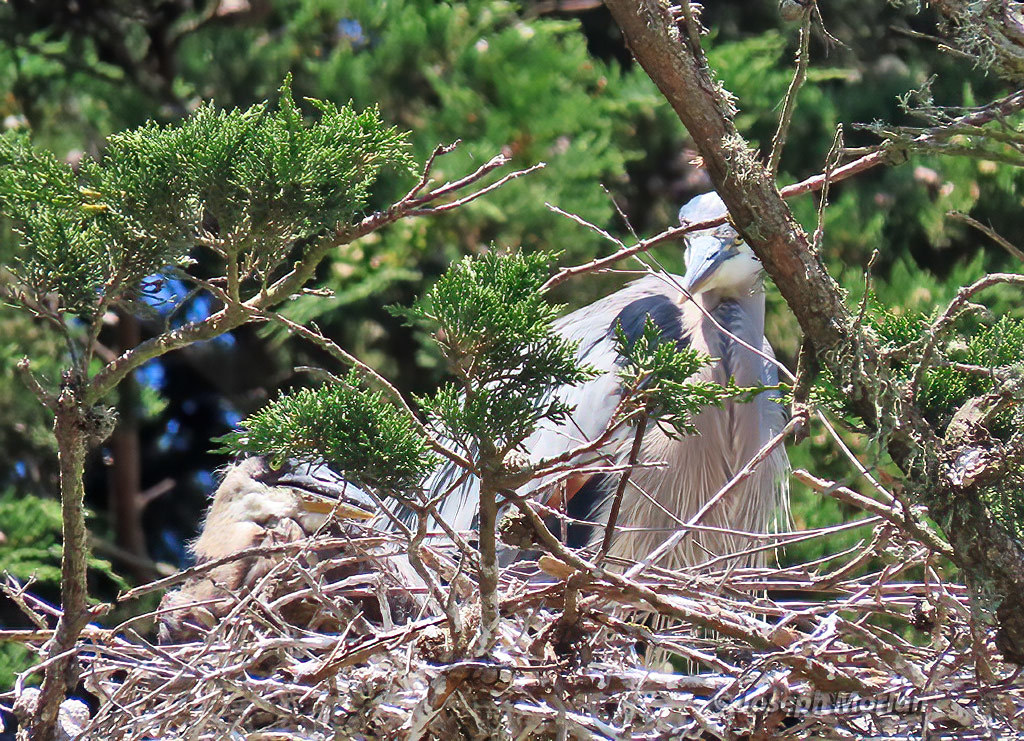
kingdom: Animalia
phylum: Chordata
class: Aves
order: Pelecaniformes
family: Ardeidae
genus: Ardea
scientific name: Ardea herodias
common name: Great blue heron
